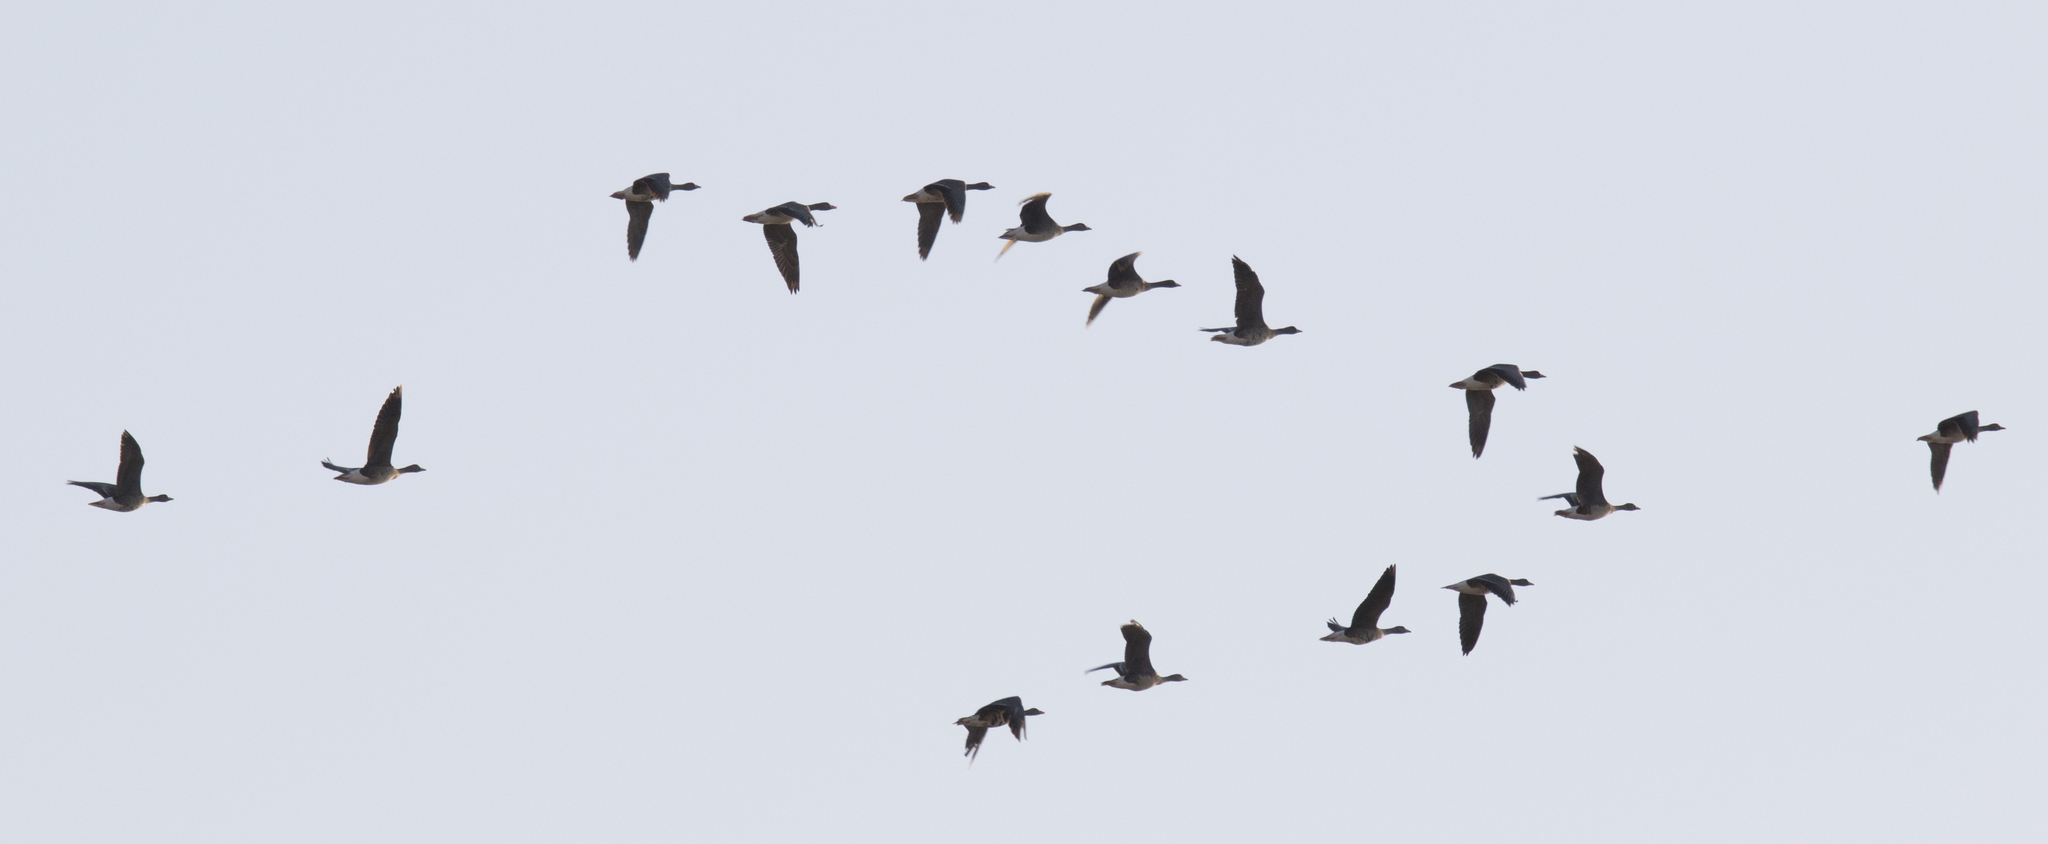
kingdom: Animalia
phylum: Chordata
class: Aves
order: Anseriformes
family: Anatidae
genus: Anser
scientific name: Anser albifrons
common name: Greater white-fronted goose
